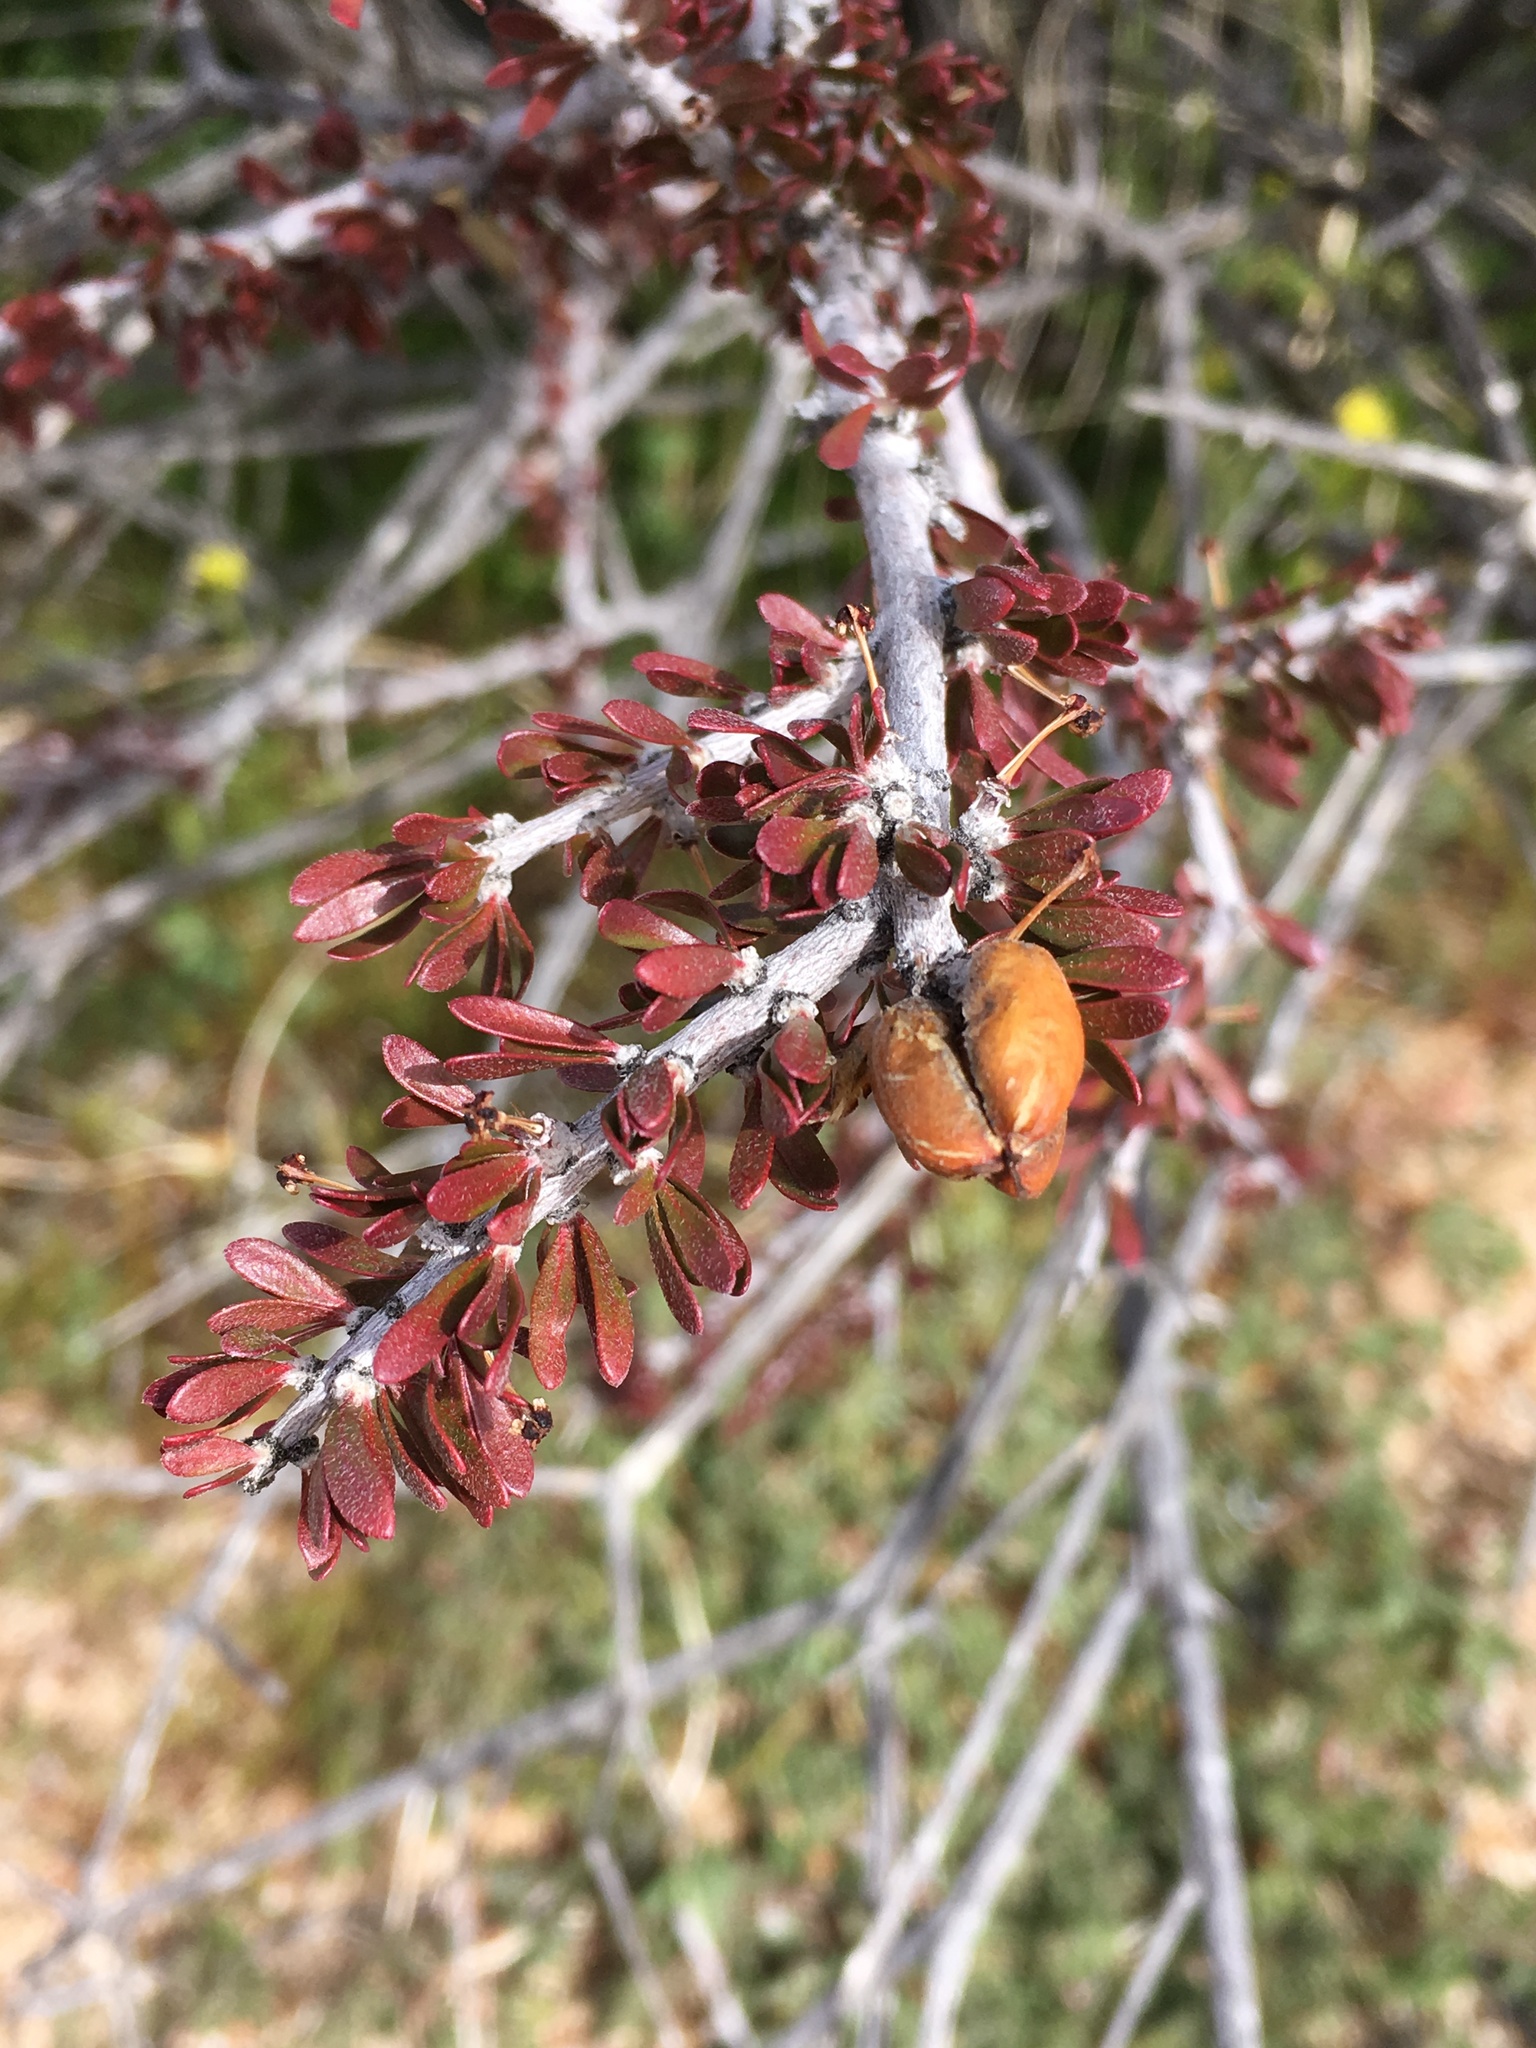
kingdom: Plantae
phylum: Tracheophyta
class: Magnoliopsida
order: Malpighiales
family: Picrodendraceae
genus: Tetracoccus
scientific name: Tetracoccus hallii
